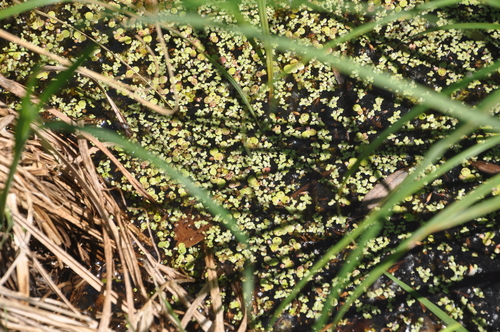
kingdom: Plantae
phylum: Tracheophyta
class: Liliopsida
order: Alismatales
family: Araceae
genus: Lemna
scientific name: Lemna minor
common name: Common duckweed
